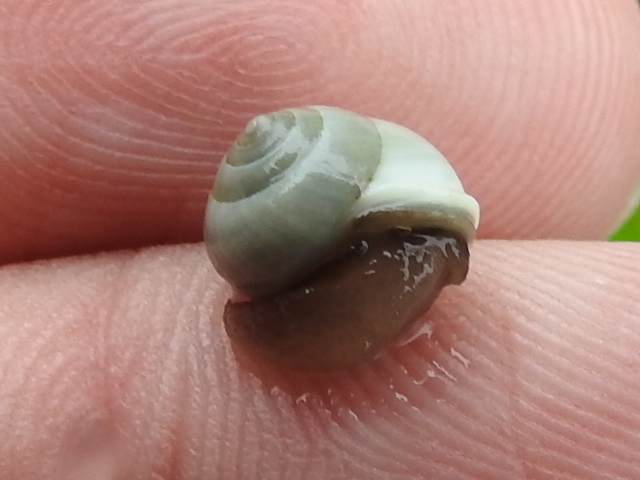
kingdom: Animalia
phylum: Mollusca
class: Gastropoda
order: Cycloneritida
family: Helicinidae
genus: Helicina
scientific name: Helicina orbiculata
